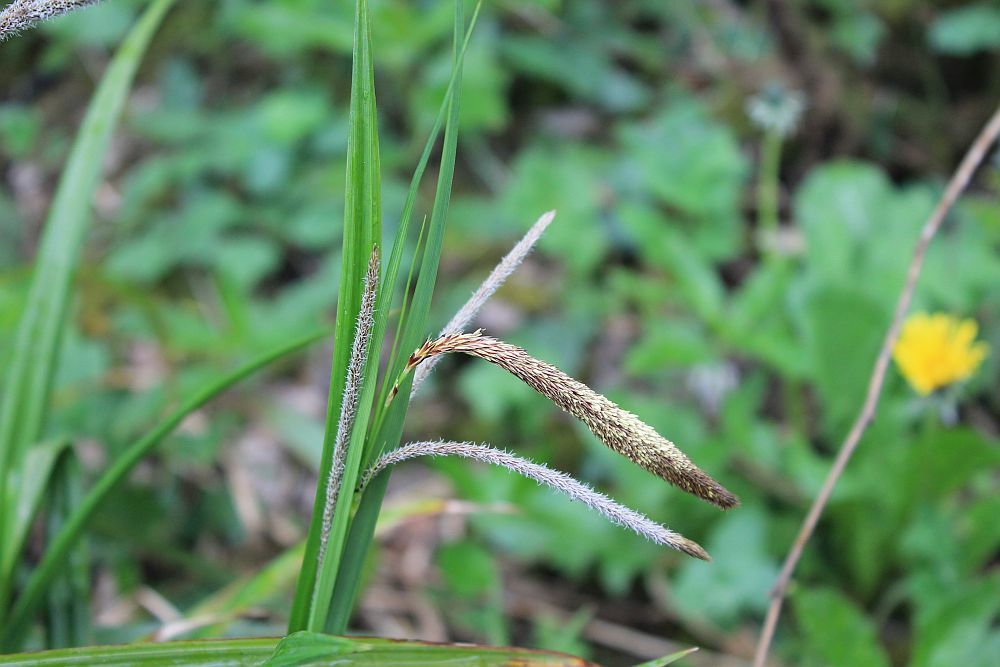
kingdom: Plantae
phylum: Tracheophyta
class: Liliopsida
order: Poales
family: Cyperaceae
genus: Carex
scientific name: Carex pendula
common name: Pendulous sedge
